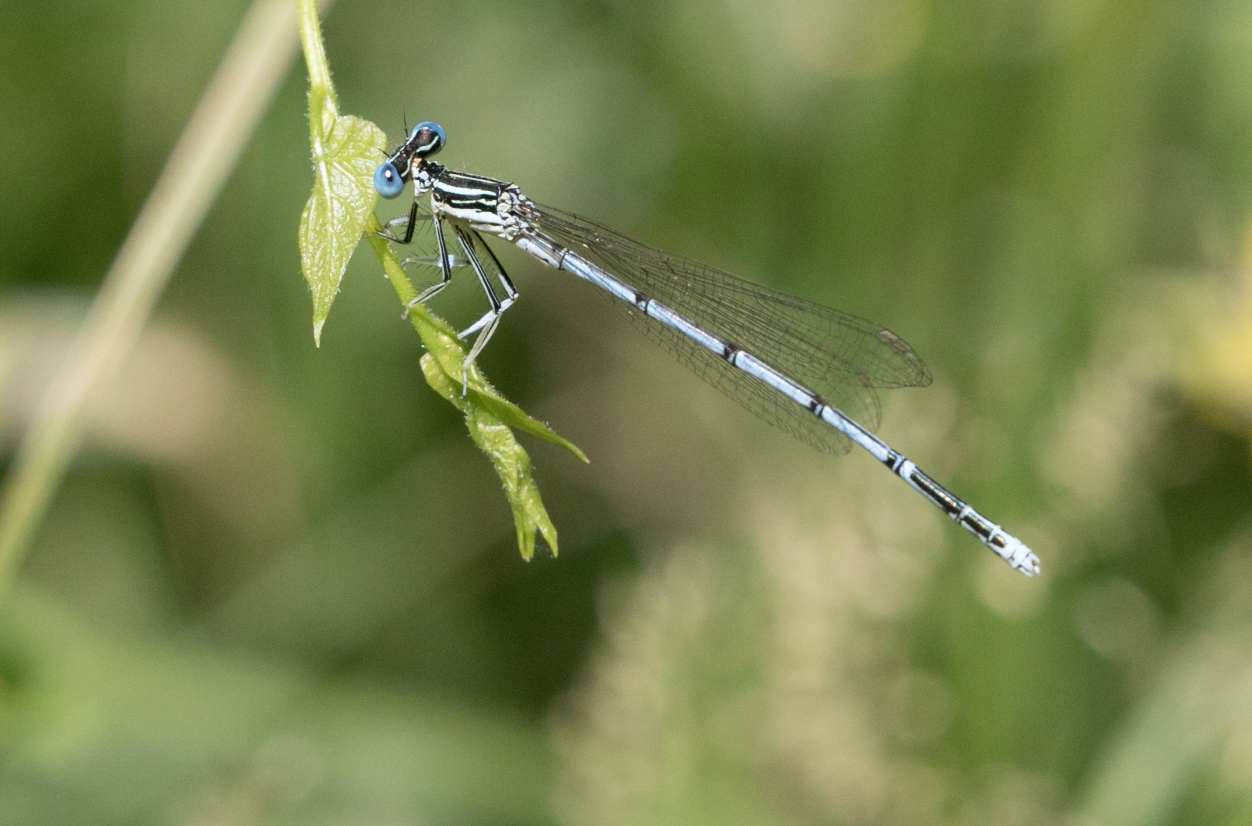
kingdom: Animalia
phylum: Arthropoda
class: Insecta
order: Odonata
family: Platycnemididae
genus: Platycnemis
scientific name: Platycnemis pennipes
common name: White-legged damselfly
